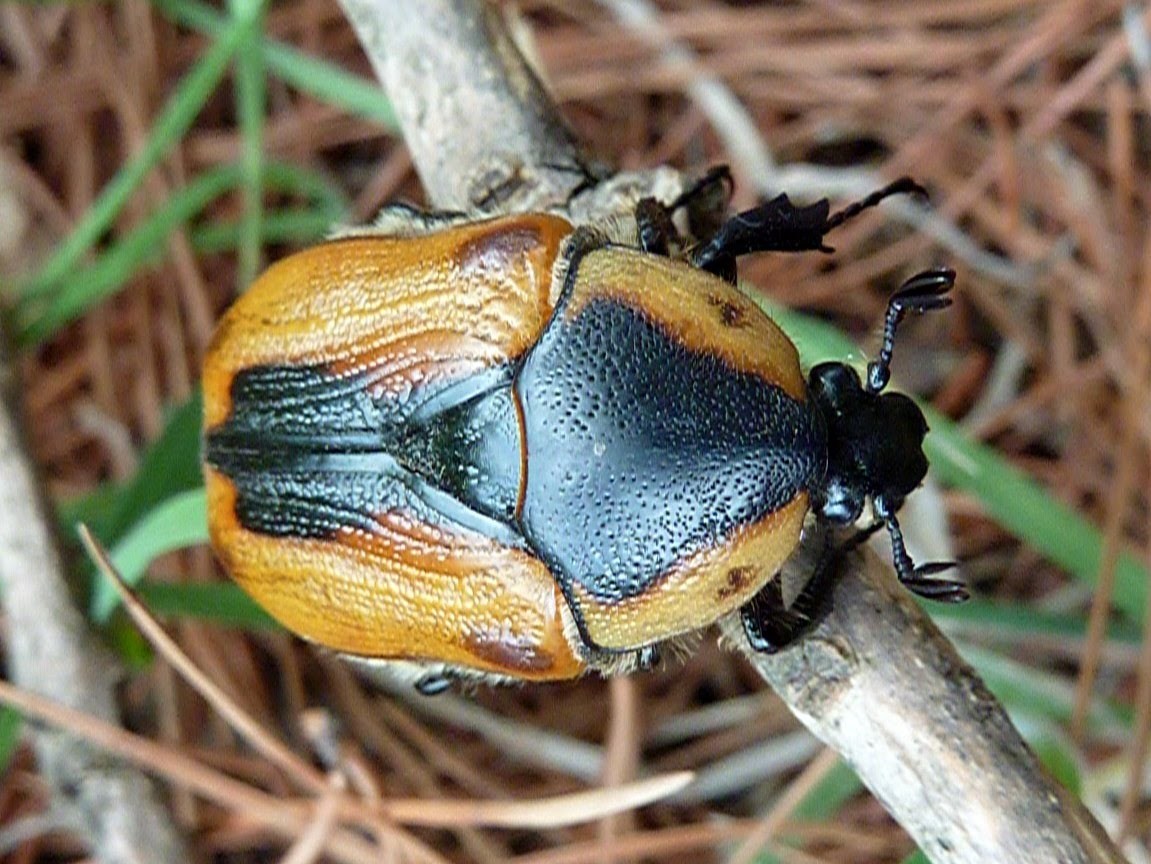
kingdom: Animalia
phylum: Arthropoda
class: Insecta
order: Coleoptera
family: Scarabaeidae
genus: Chondropyga
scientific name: Chondropyga dorsalis
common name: Cowboy beetle
